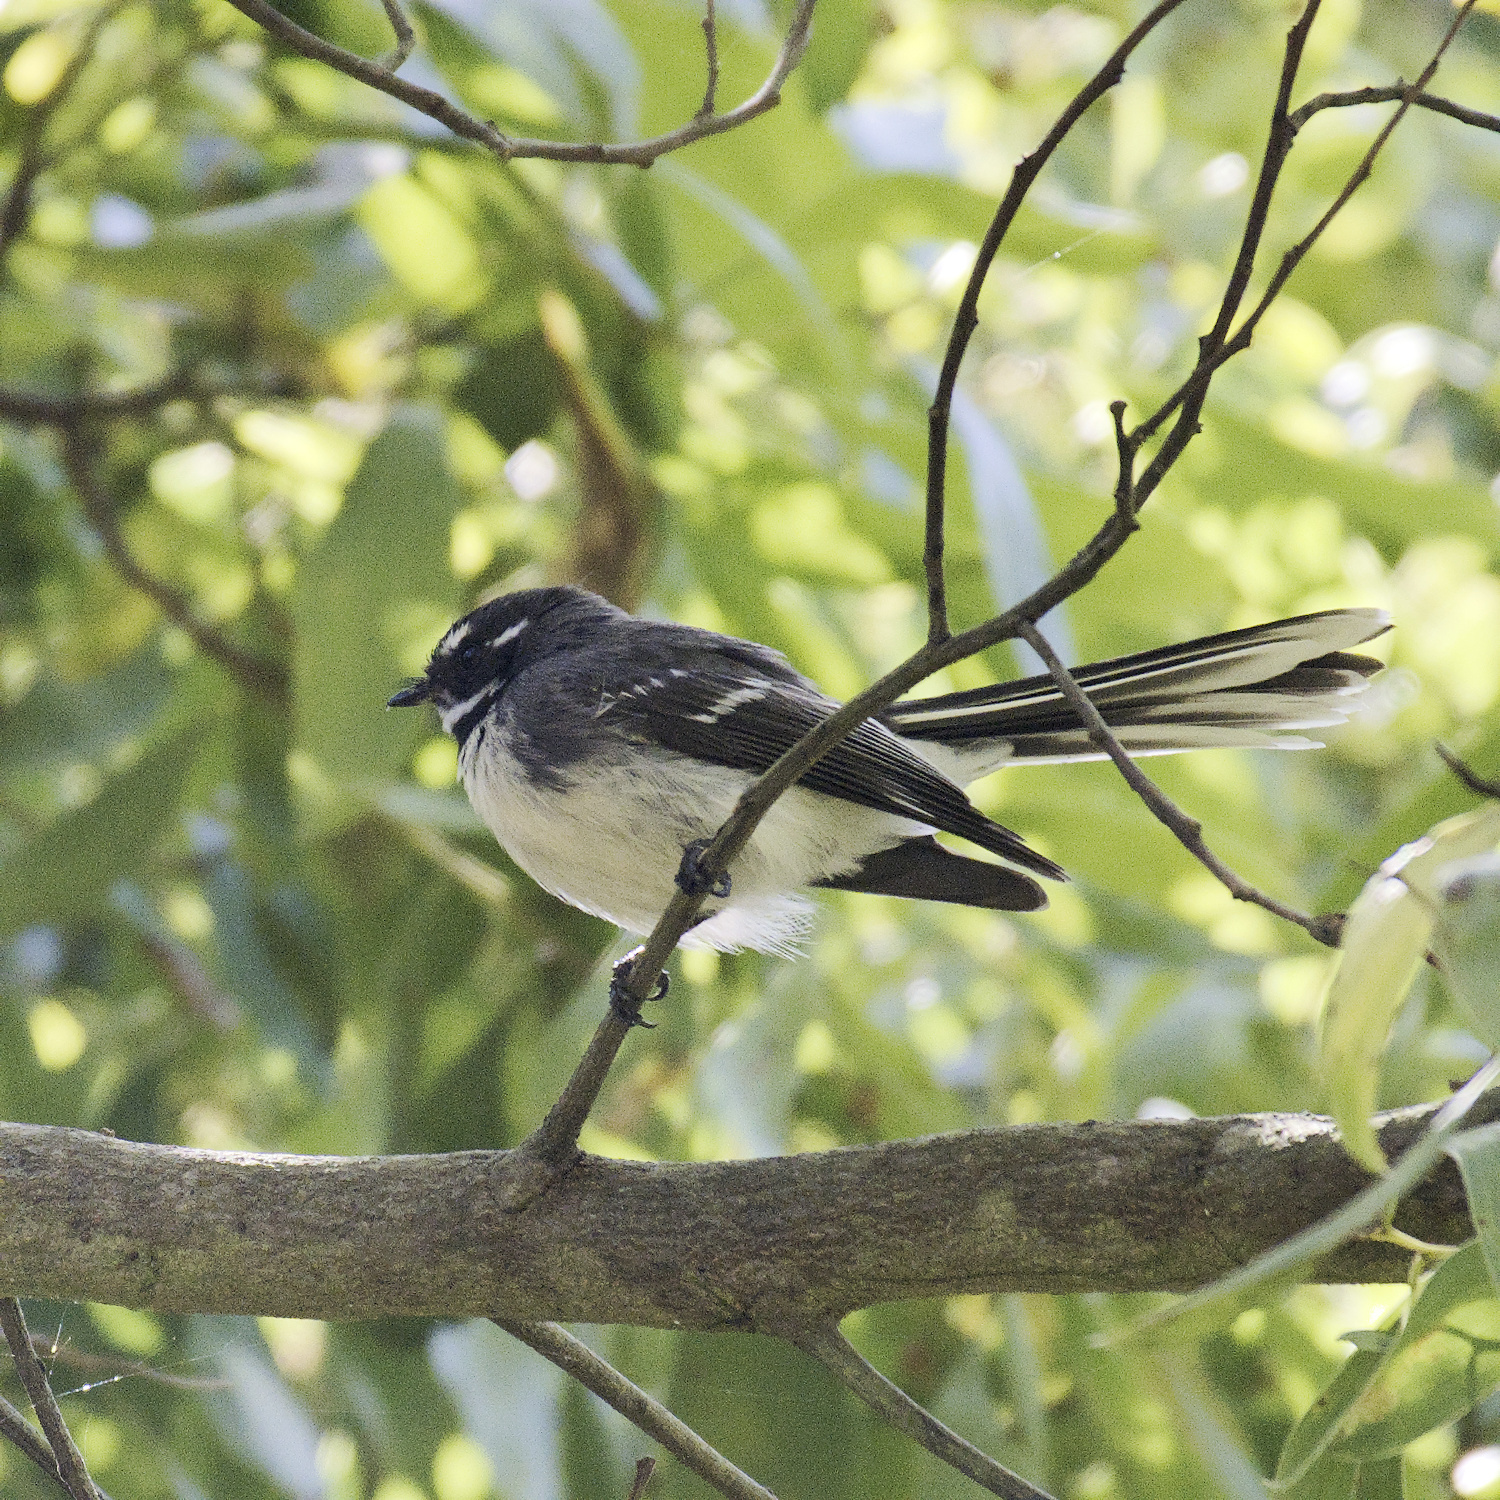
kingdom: Animalia
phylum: Chordata
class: Aves
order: Passeriformes
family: Rhipiduridae
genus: Rhipidura
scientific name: Rhipidura albiscapa
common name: Grey fantail
